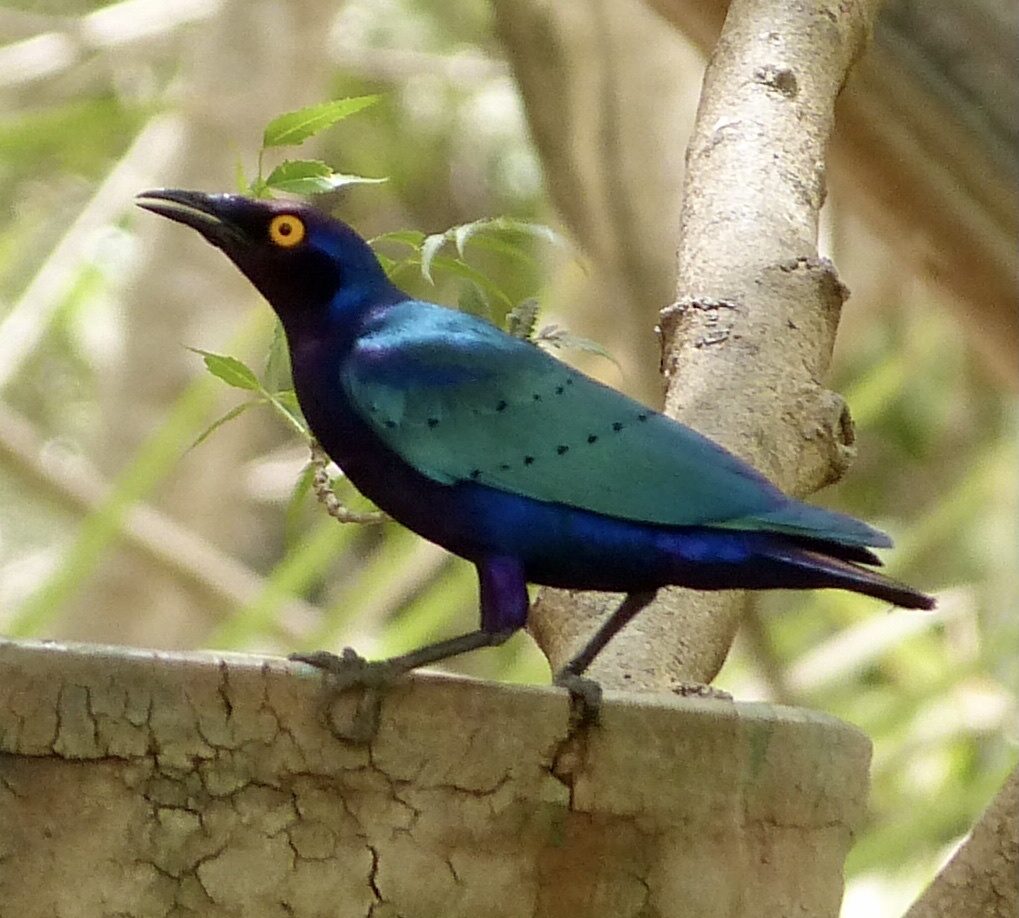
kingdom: Animalia
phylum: Chordata
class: Aves
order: Passeriformes
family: Sturnidae
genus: Lamprotornis
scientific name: Lamprotornis purpureus
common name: Purple starling
